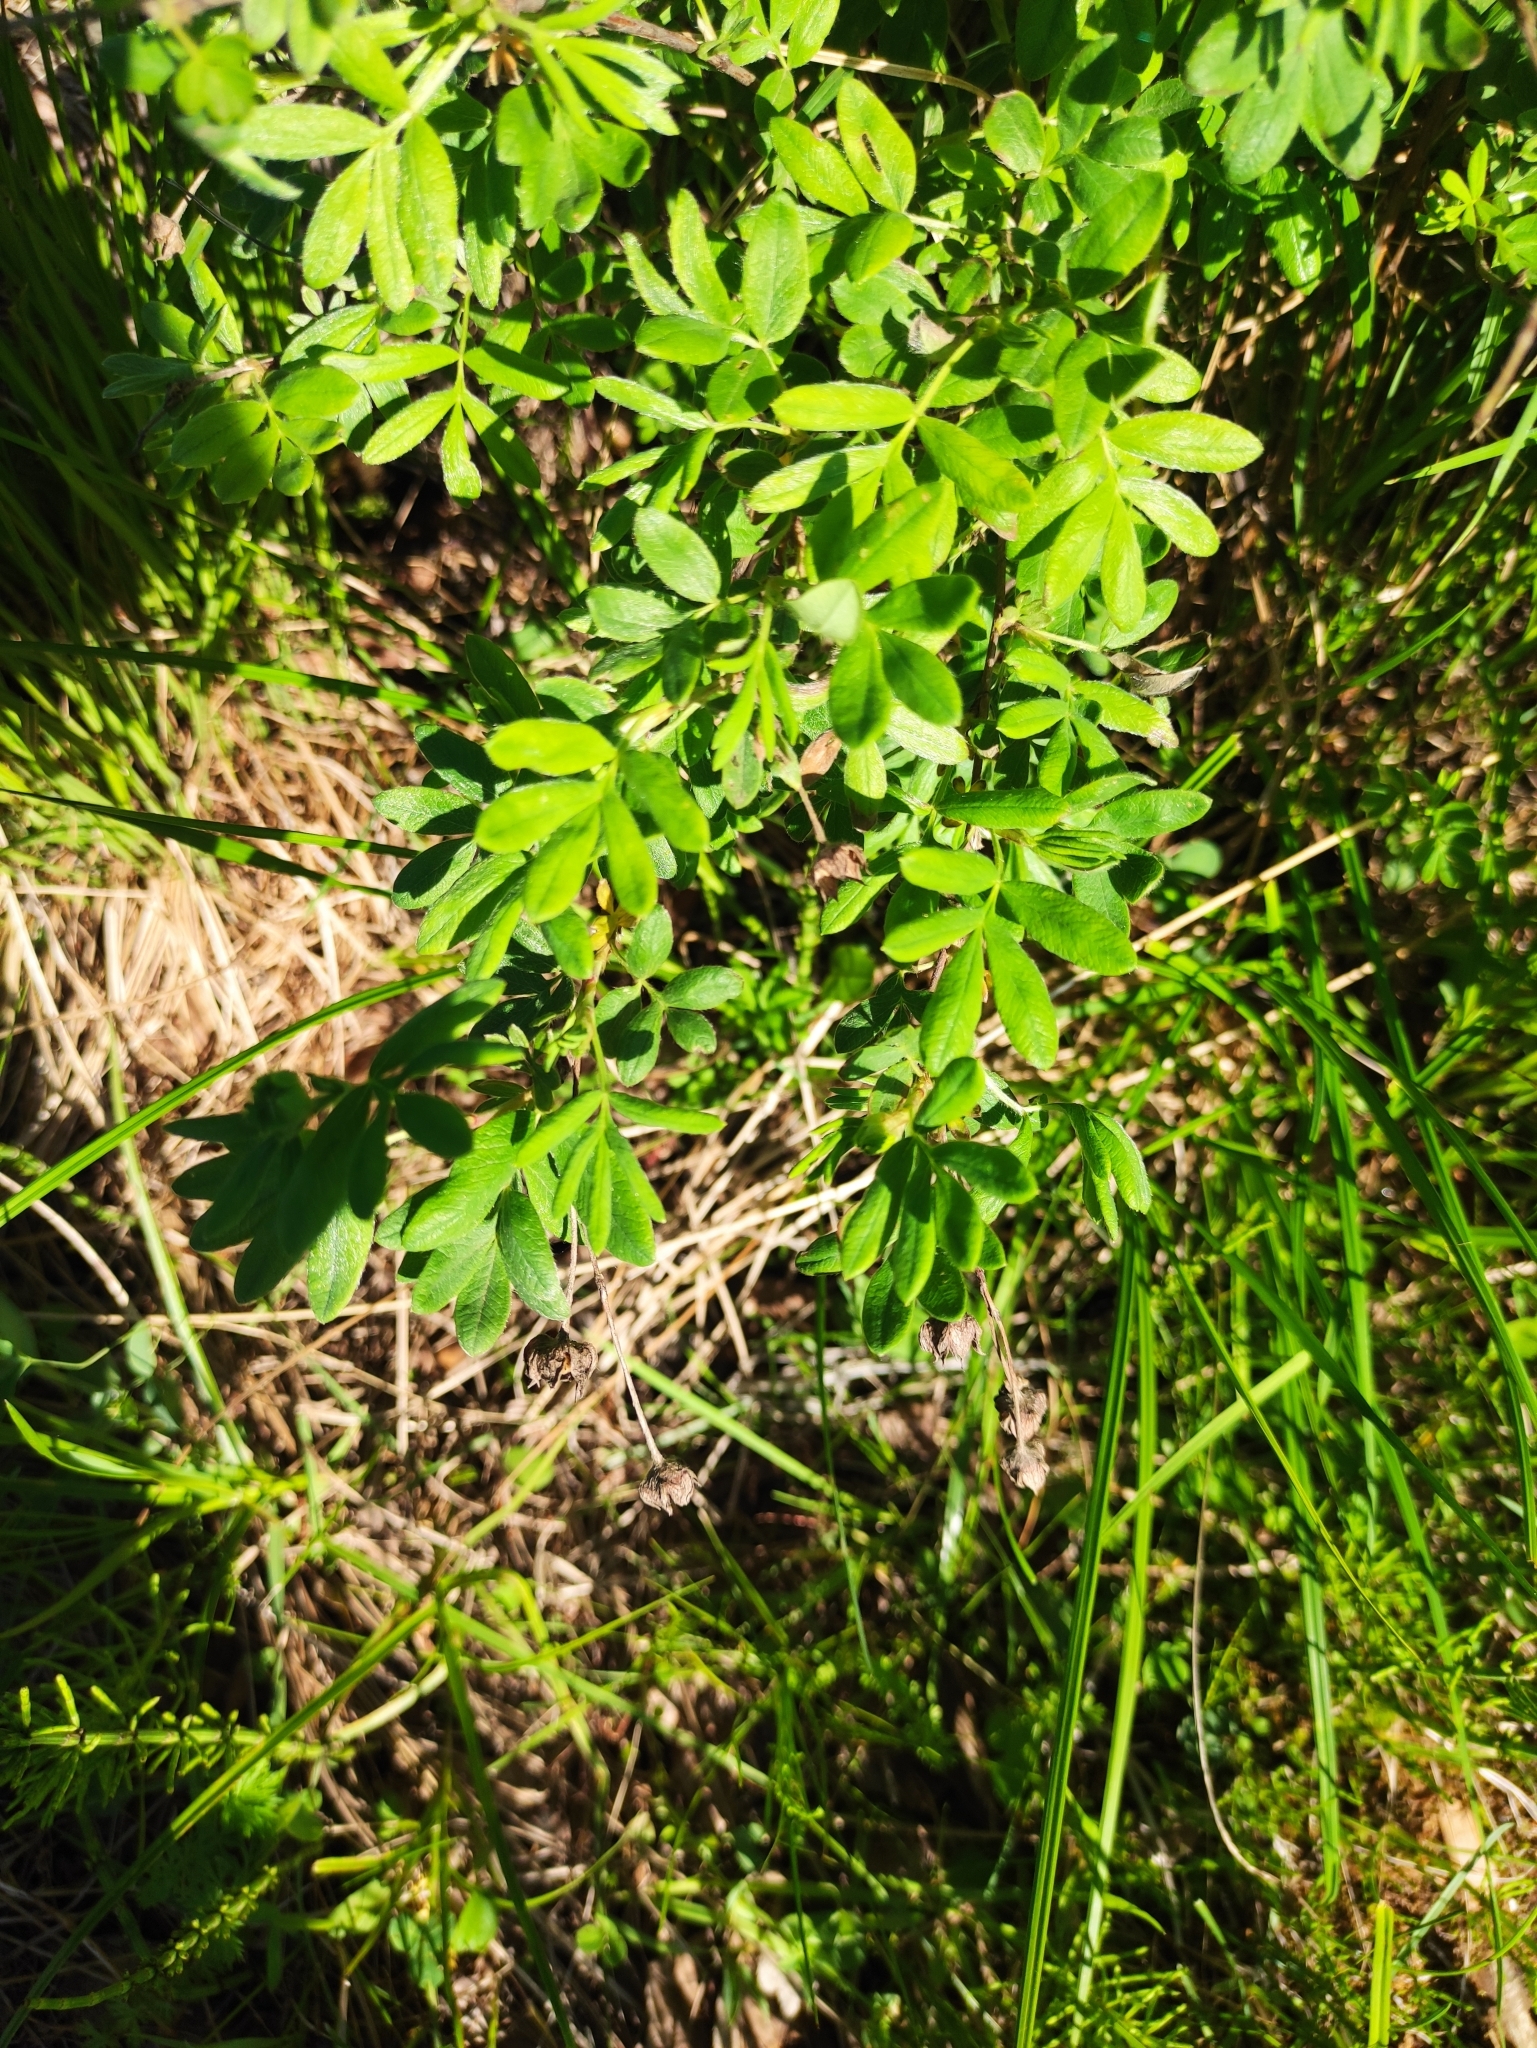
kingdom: Plantae
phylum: Tracheophyta
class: Magnoliopsida
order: Rosales
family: Rosaceae
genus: Dasiphora
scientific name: Dasiphora fruticosa
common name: Shrubby cinquefoil
